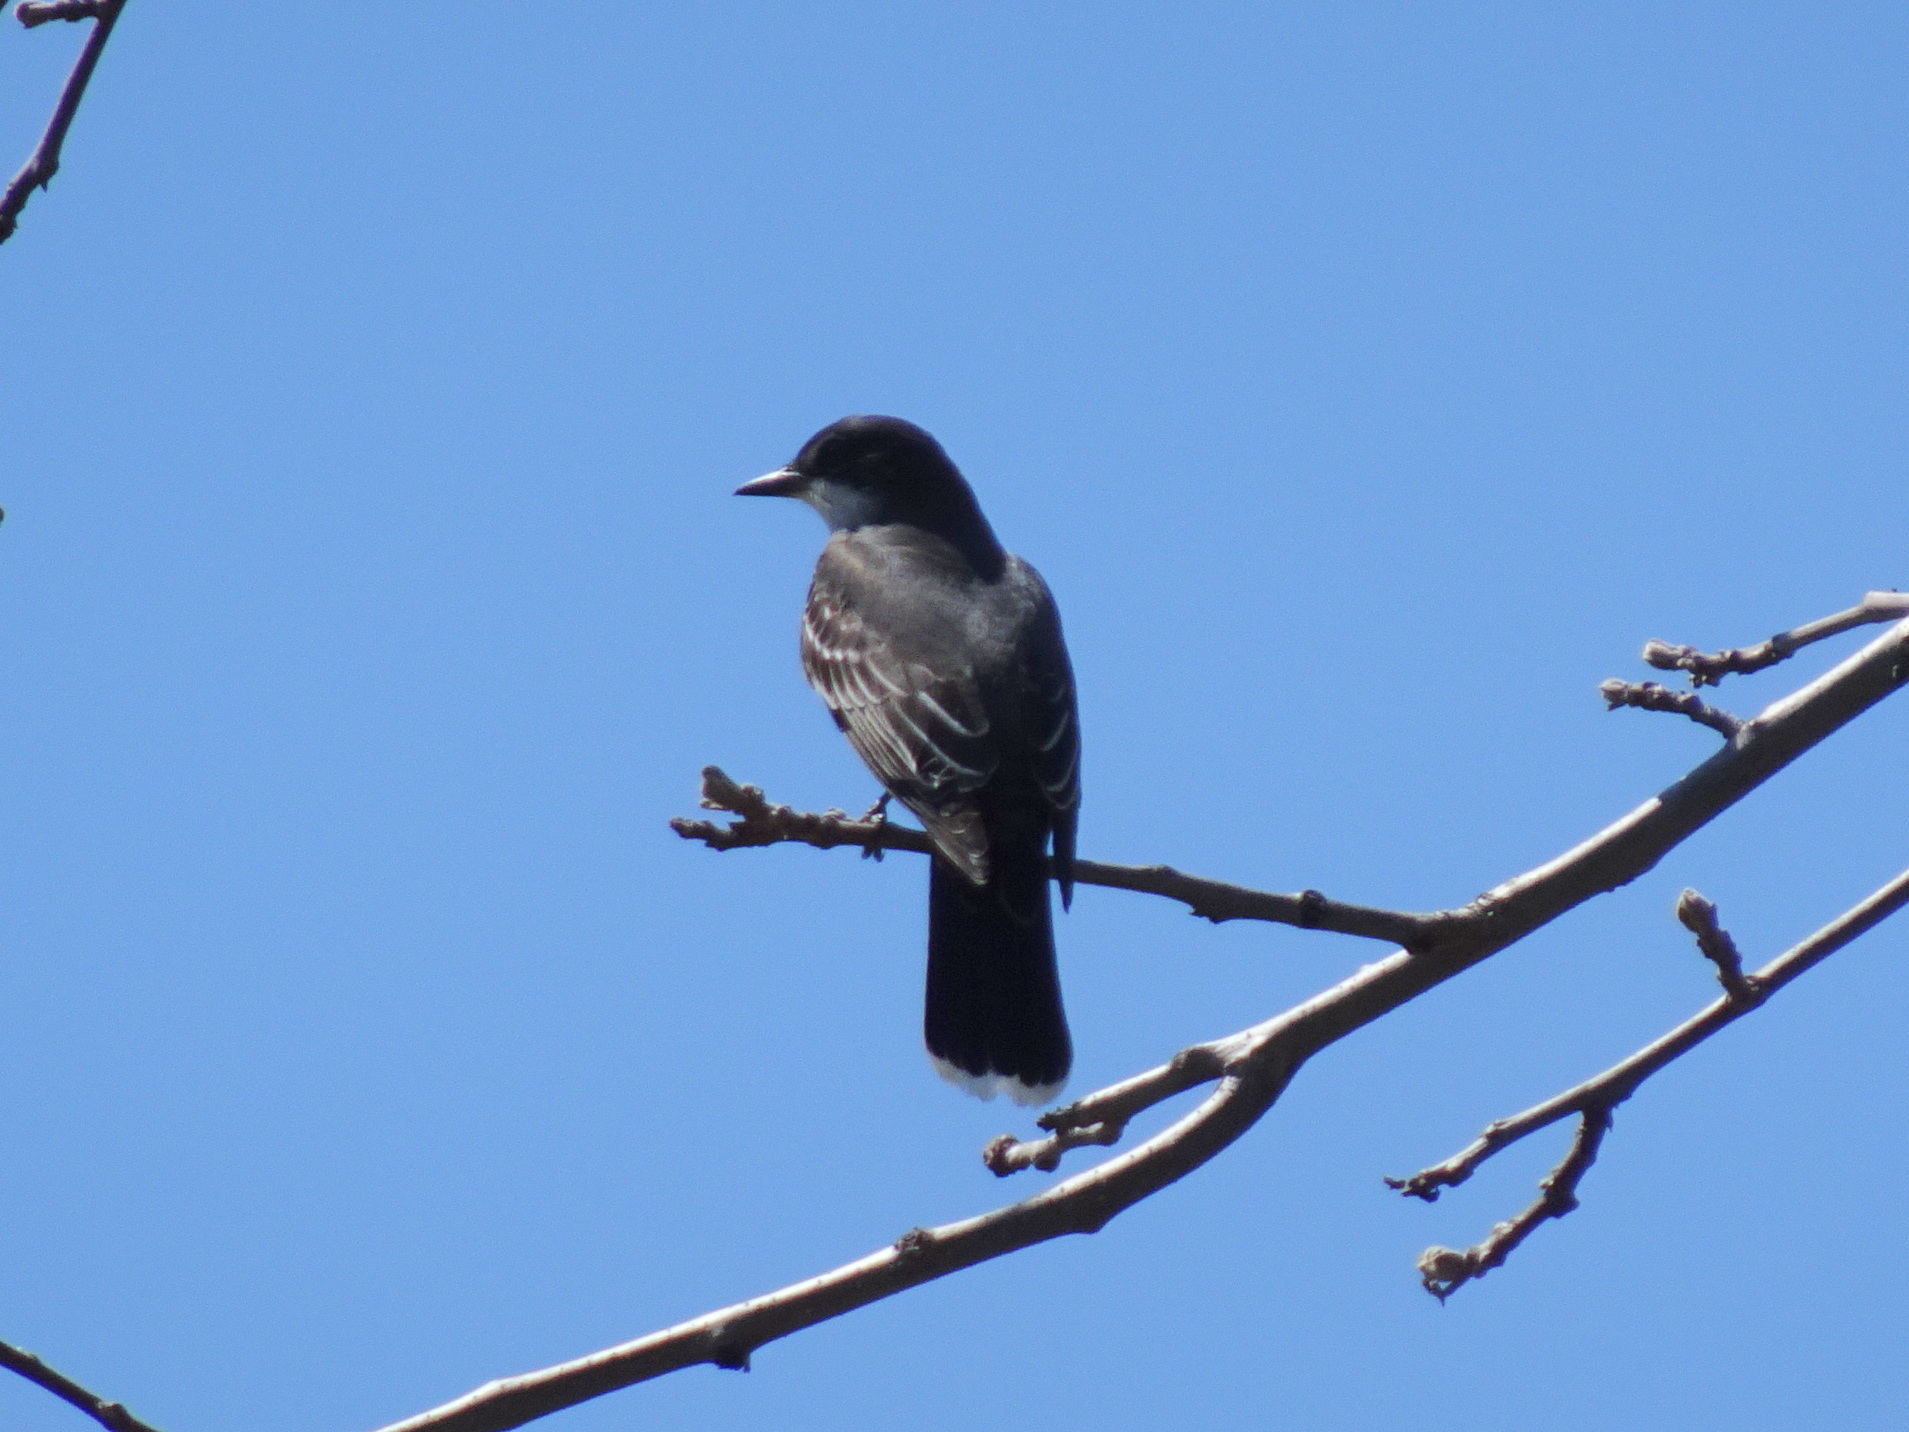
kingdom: Animalia
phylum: Chordata
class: Aves
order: Passeriformes
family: Tyrannidae
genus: Tyrannus
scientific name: Tyrannus tyrannus
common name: Eastern kingbird
